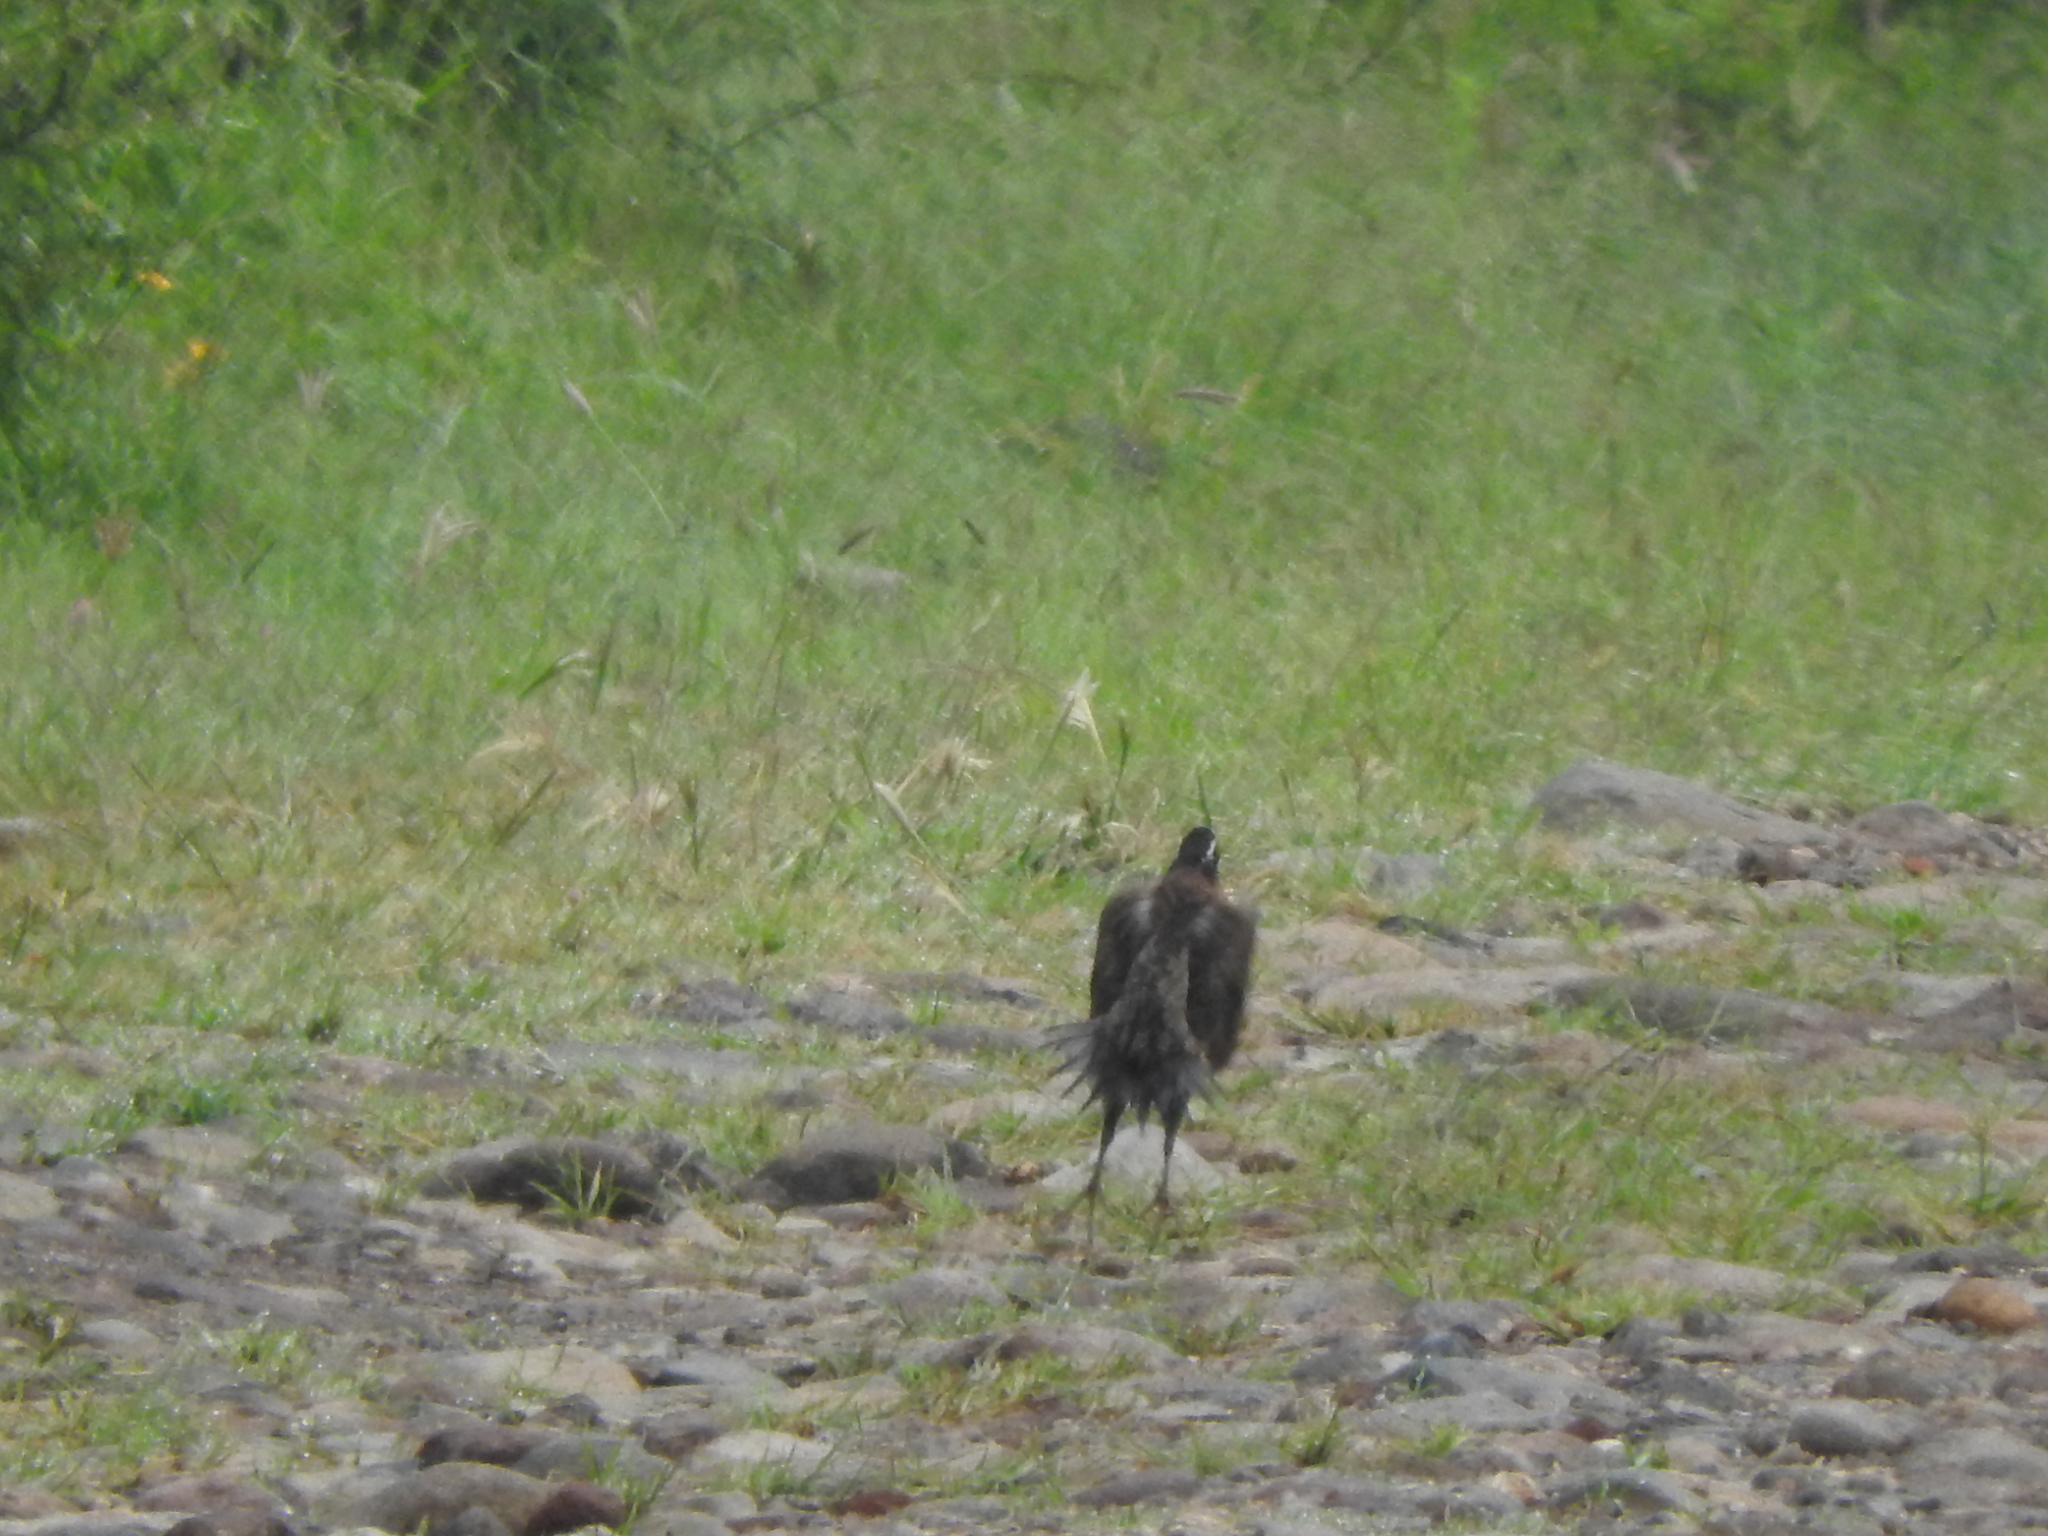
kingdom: Animalia
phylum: Chordata
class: Aves
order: Galliformes
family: Odontophoridae
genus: Colinus
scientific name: Colinus virginianus
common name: Northern bobwhite
